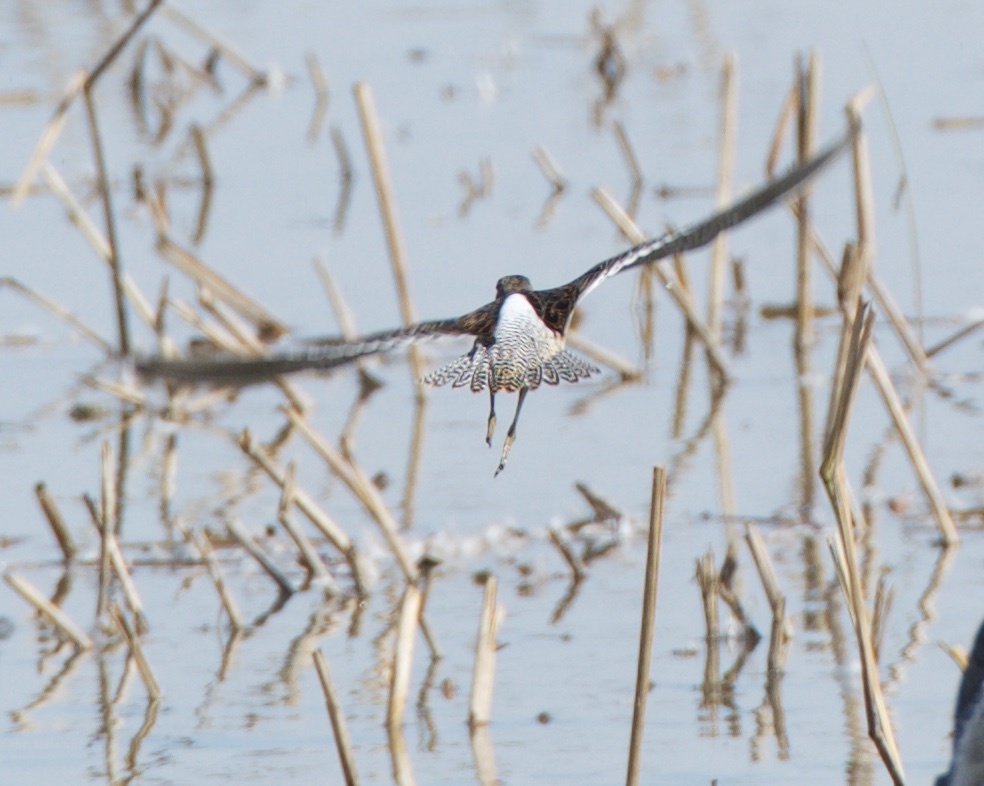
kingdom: Animalia
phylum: Chordata
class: Aves
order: Charadriiformes
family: Scolopacidae
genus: Limnodromus
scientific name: Limnodromus
